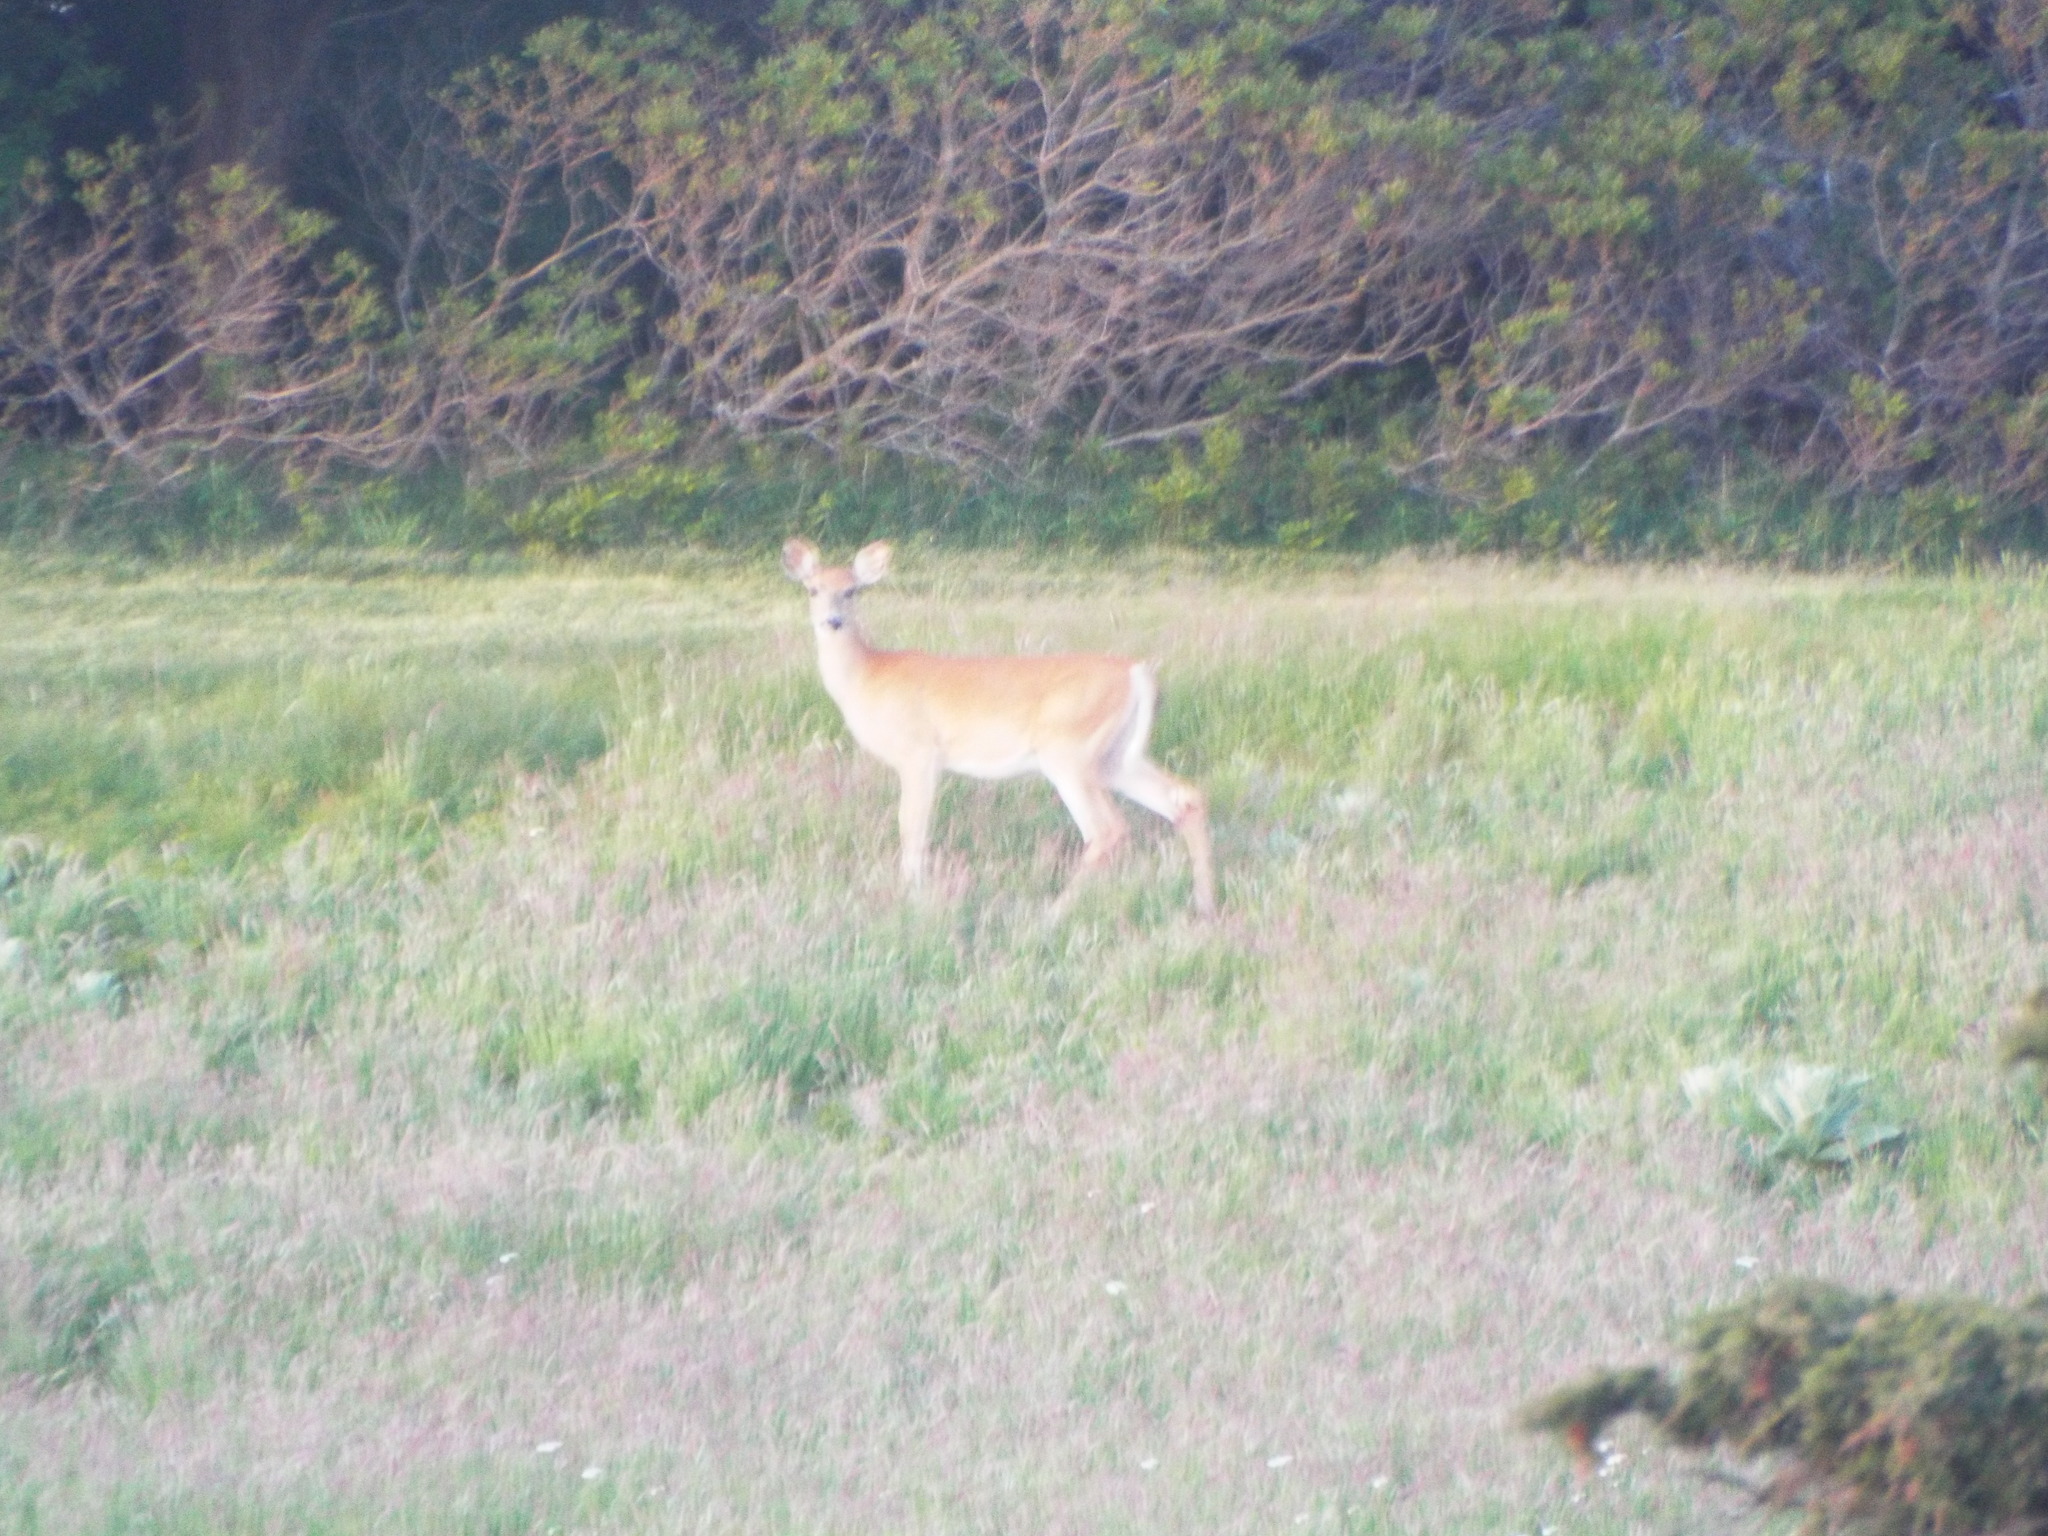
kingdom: Animalia
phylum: Chordata
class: Mammalia
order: Artiodactyla
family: Cervidae
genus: Odocoileus
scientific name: Odocoileus virginianus
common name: White-tailed deer
